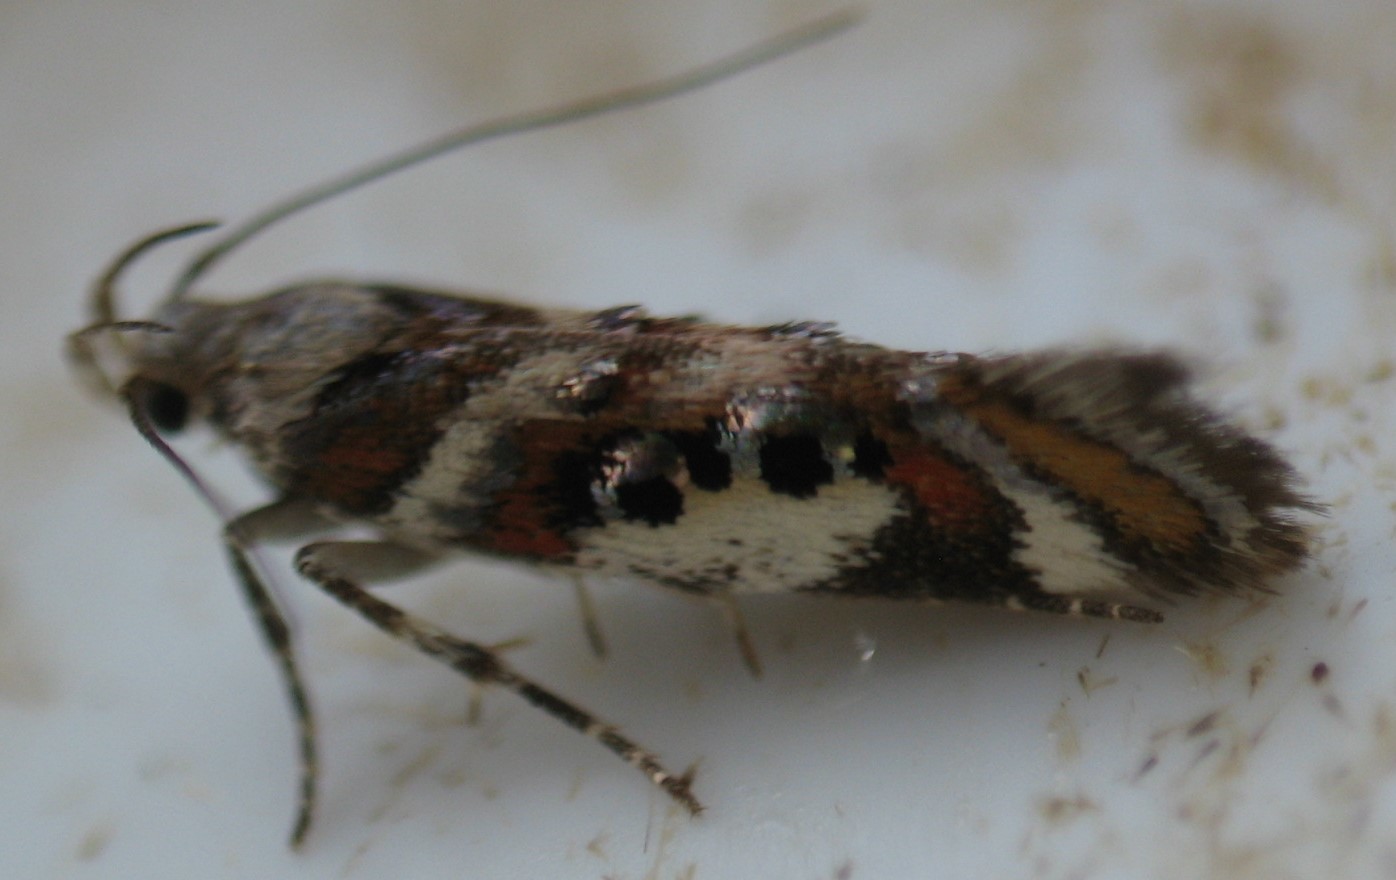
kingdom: Animalia
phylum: Arthropoda
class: Insecta
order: Lepidoptera
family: Gelechiidae
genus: Aristotelia
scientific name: Aristotelia elegantella
